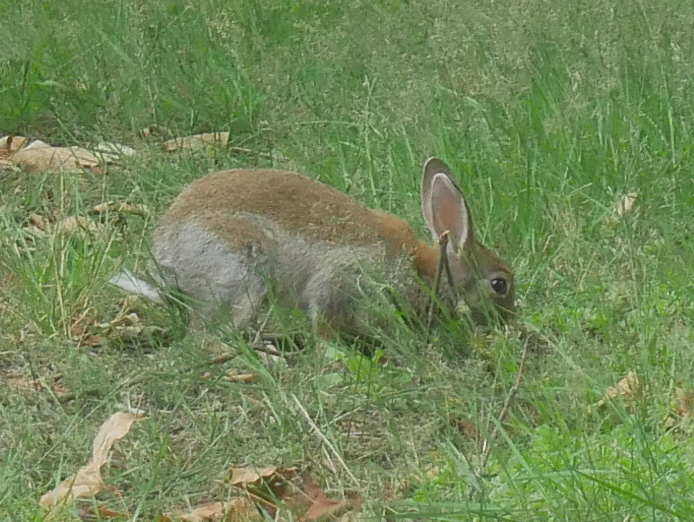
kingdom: Animalia
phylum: Chordata
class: Mammalia
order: Lagomorpha
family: Leporidae
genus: Oryctolagus
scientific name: Oryctolagus cuniculus
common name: European rabbit
